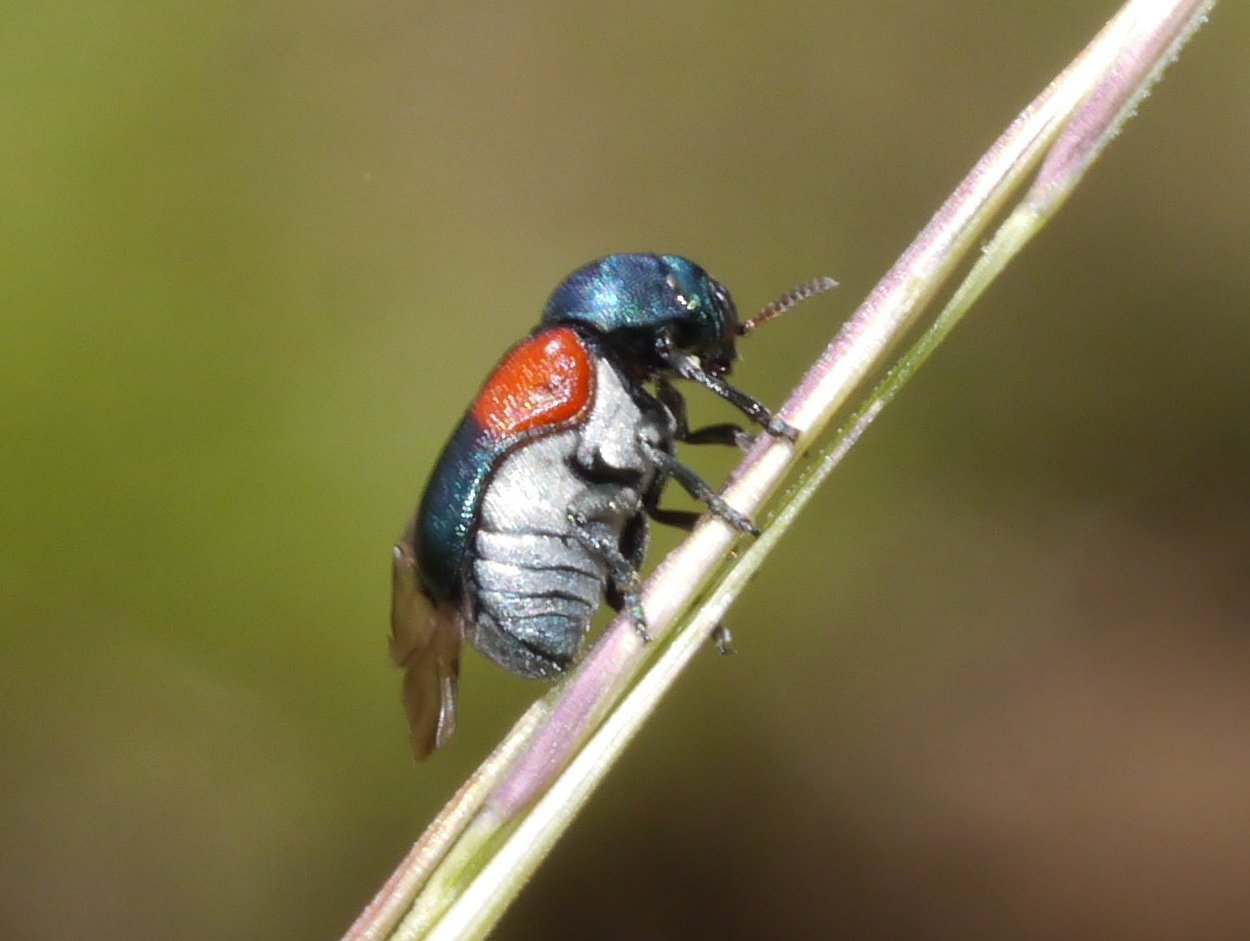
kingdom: Animalia
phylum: Arthropoda
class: Insecta
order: Coleoptera
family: Chrysomelidae
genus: Saxinis
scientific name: Saxinis sonorensis
